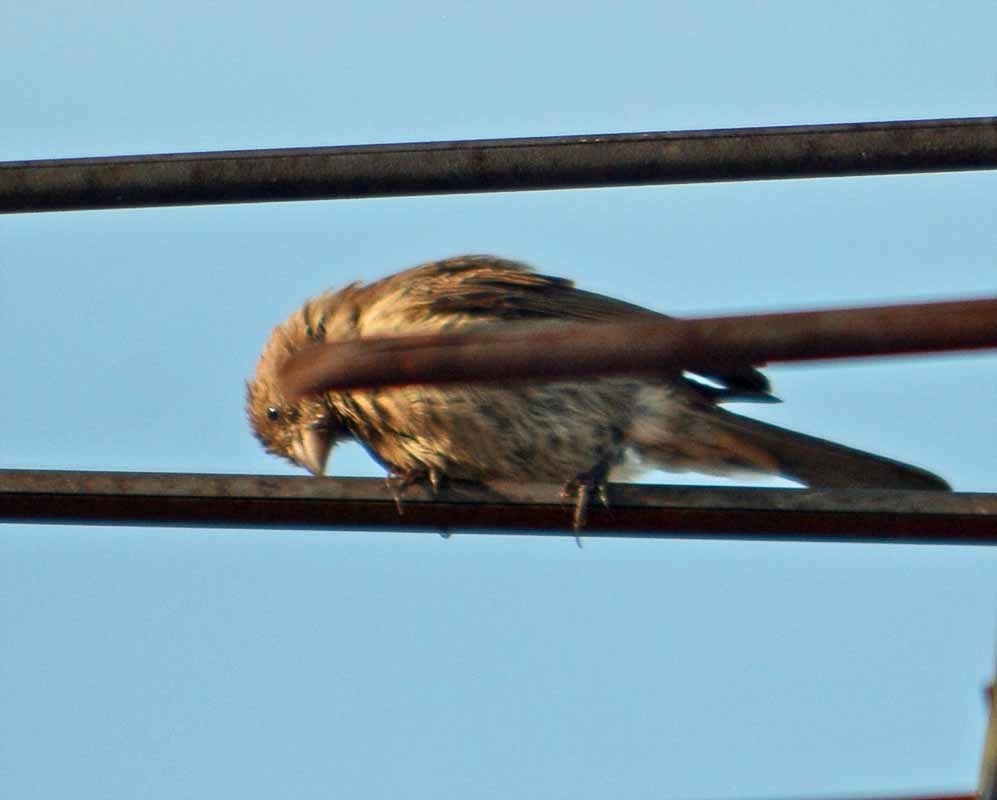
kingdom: Animalia
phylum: Chordata
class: Aves
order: Passeriformes
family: Fringillidae
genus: Haemorhous
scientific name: Haemorhous mexicanus
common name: House finch
